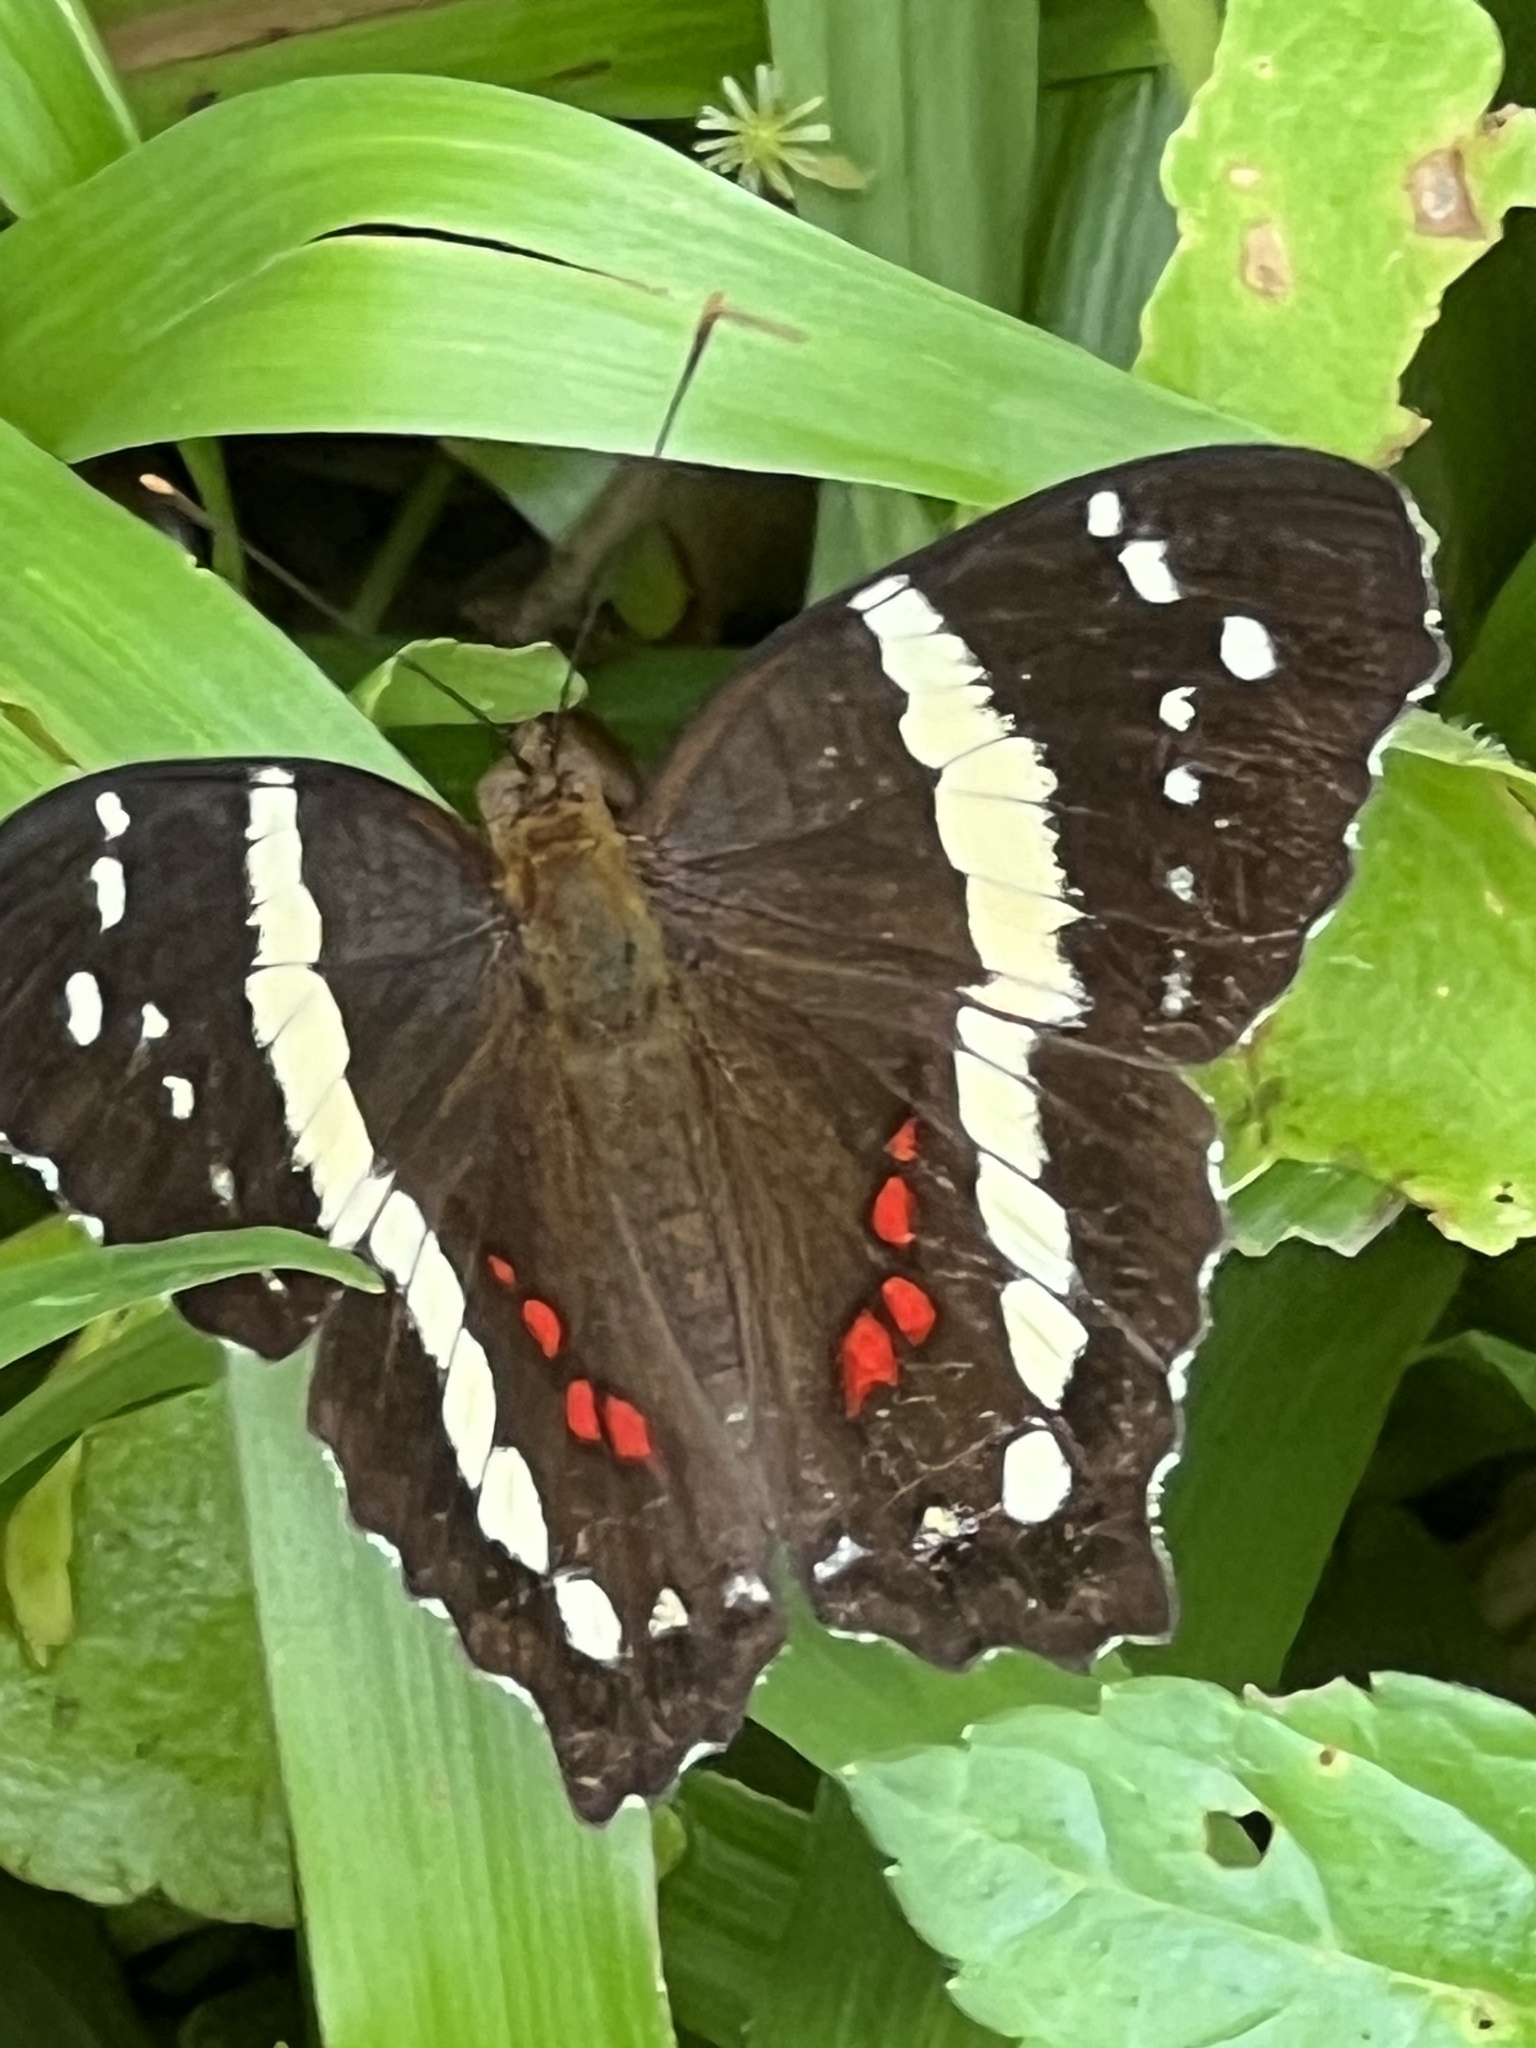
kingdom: Animalia
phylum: Arthropoda
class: Insecta
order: Lepidoptera
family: Nymphalidae
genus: Anartia
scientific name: Anartia fatima
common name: Banded peacock
